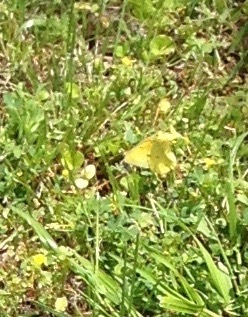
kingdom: Animalia
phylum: Arthropoda
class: Insecta
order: Lepidoptera
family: Pieridae
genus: Colias
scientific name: Colias eurytheme
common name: Alfalfa butterfly
